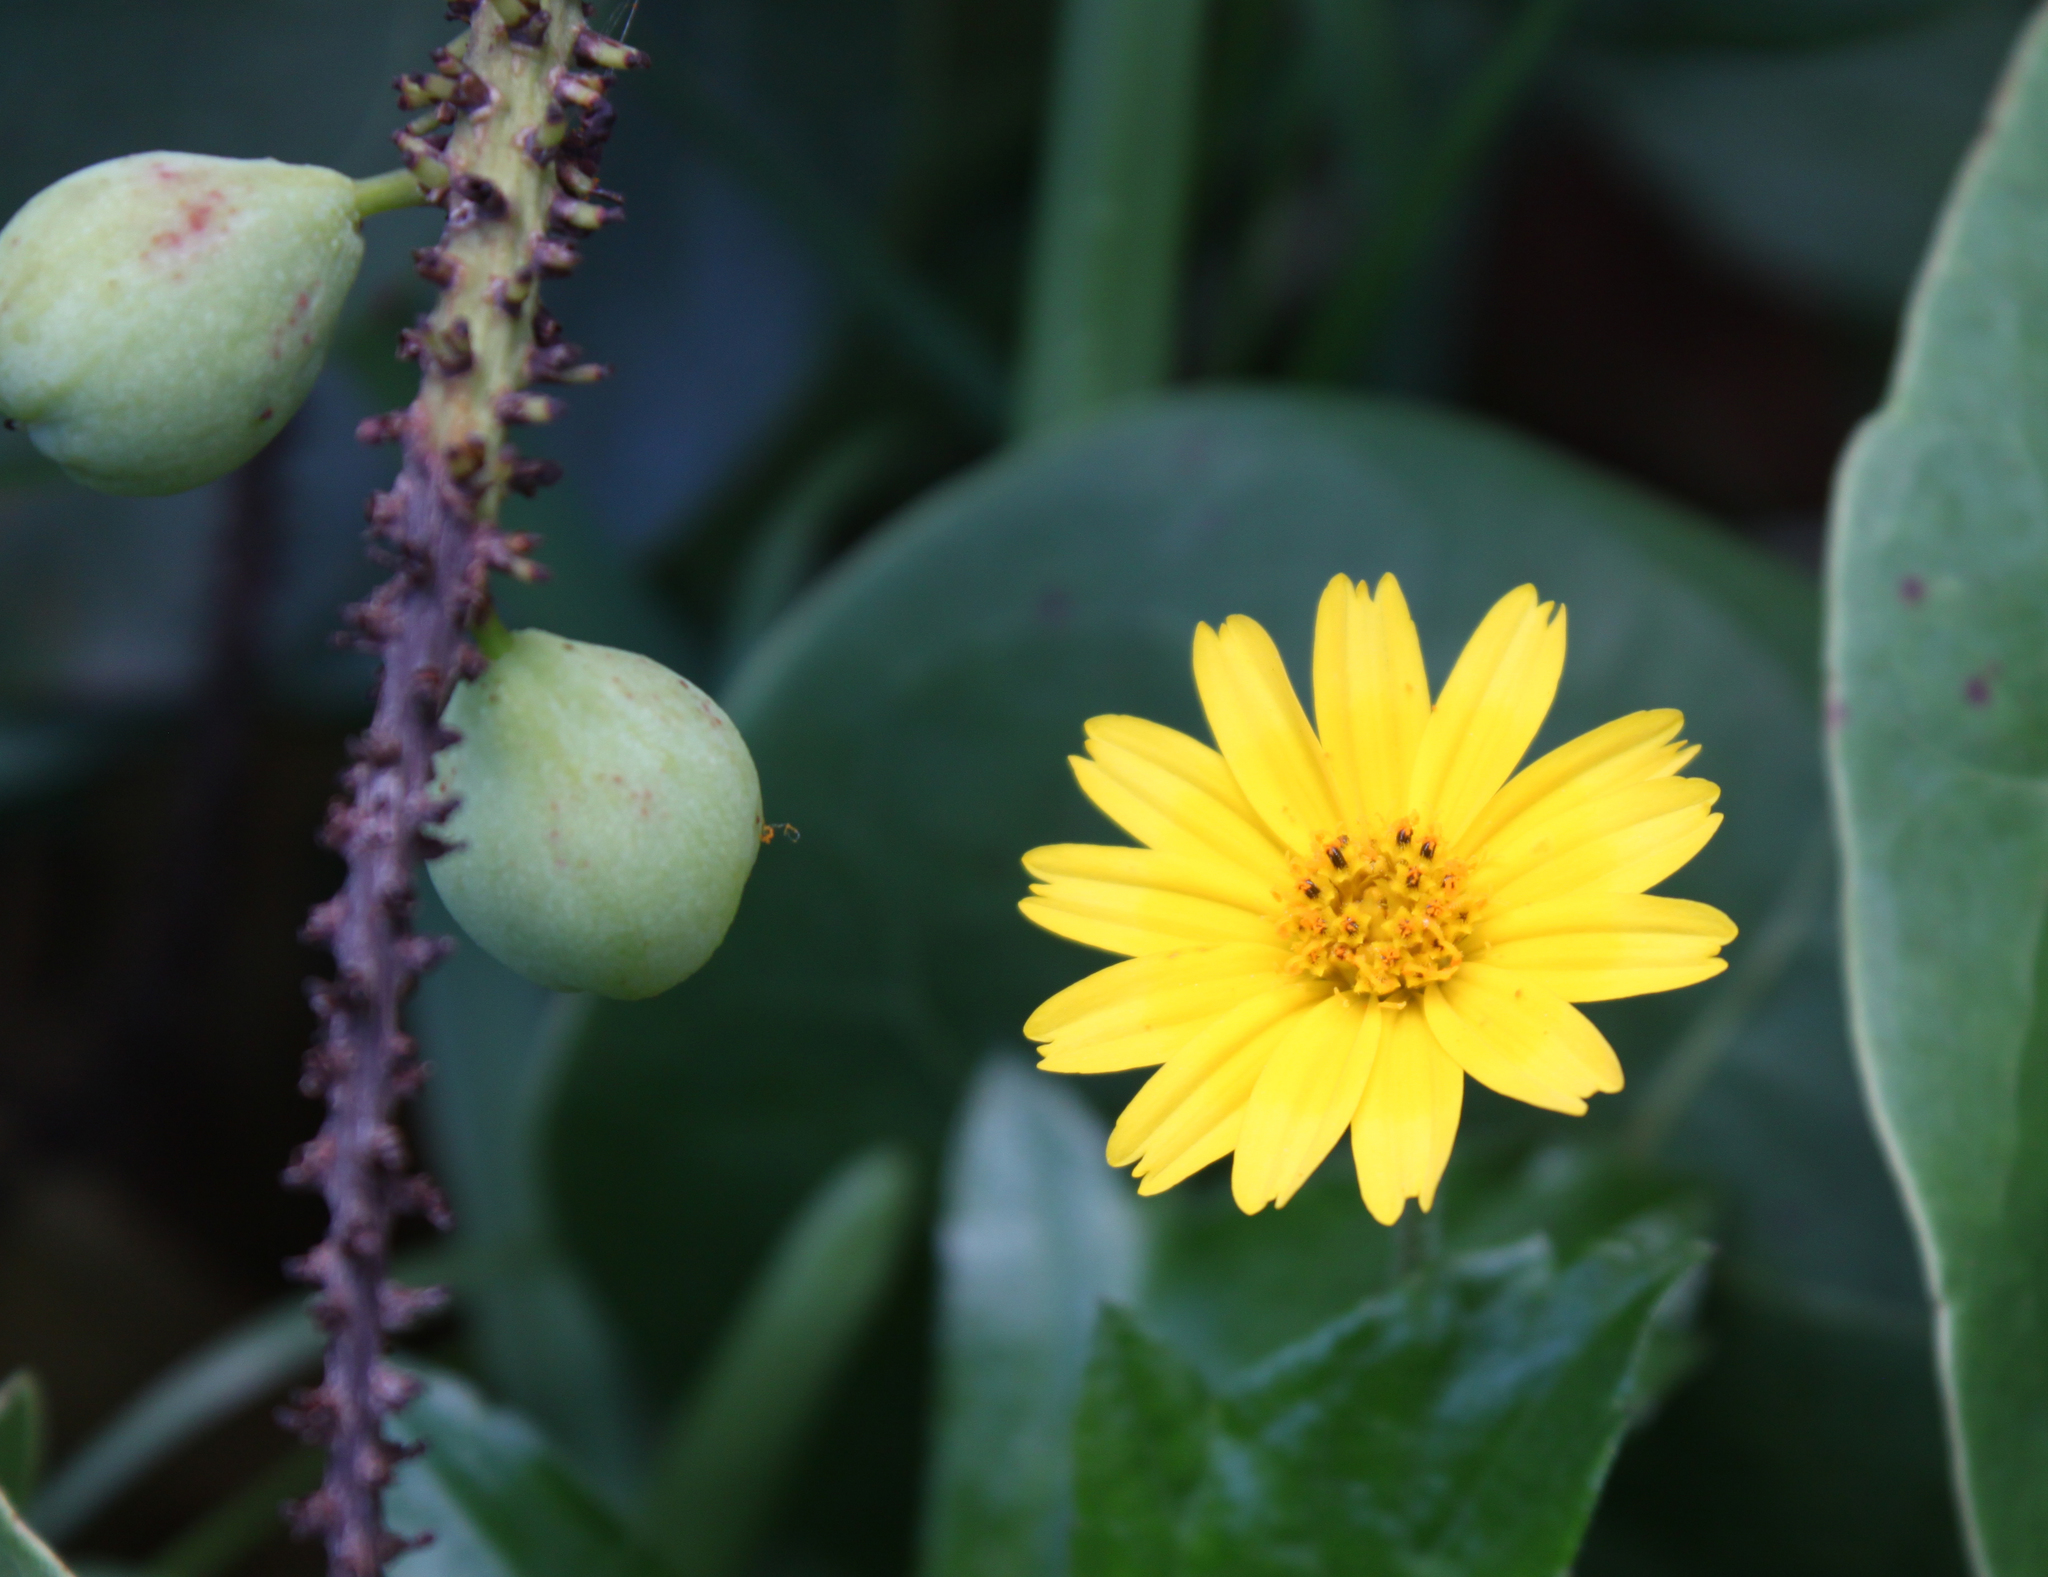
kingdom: Plantae
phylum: Tracheophyta
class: Magnoliopsida
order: Asterales
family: Asteraceae
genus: Sphagneticola
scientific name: Sphagneticola trilobata
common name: Bay biscayne creeping-oxeye
